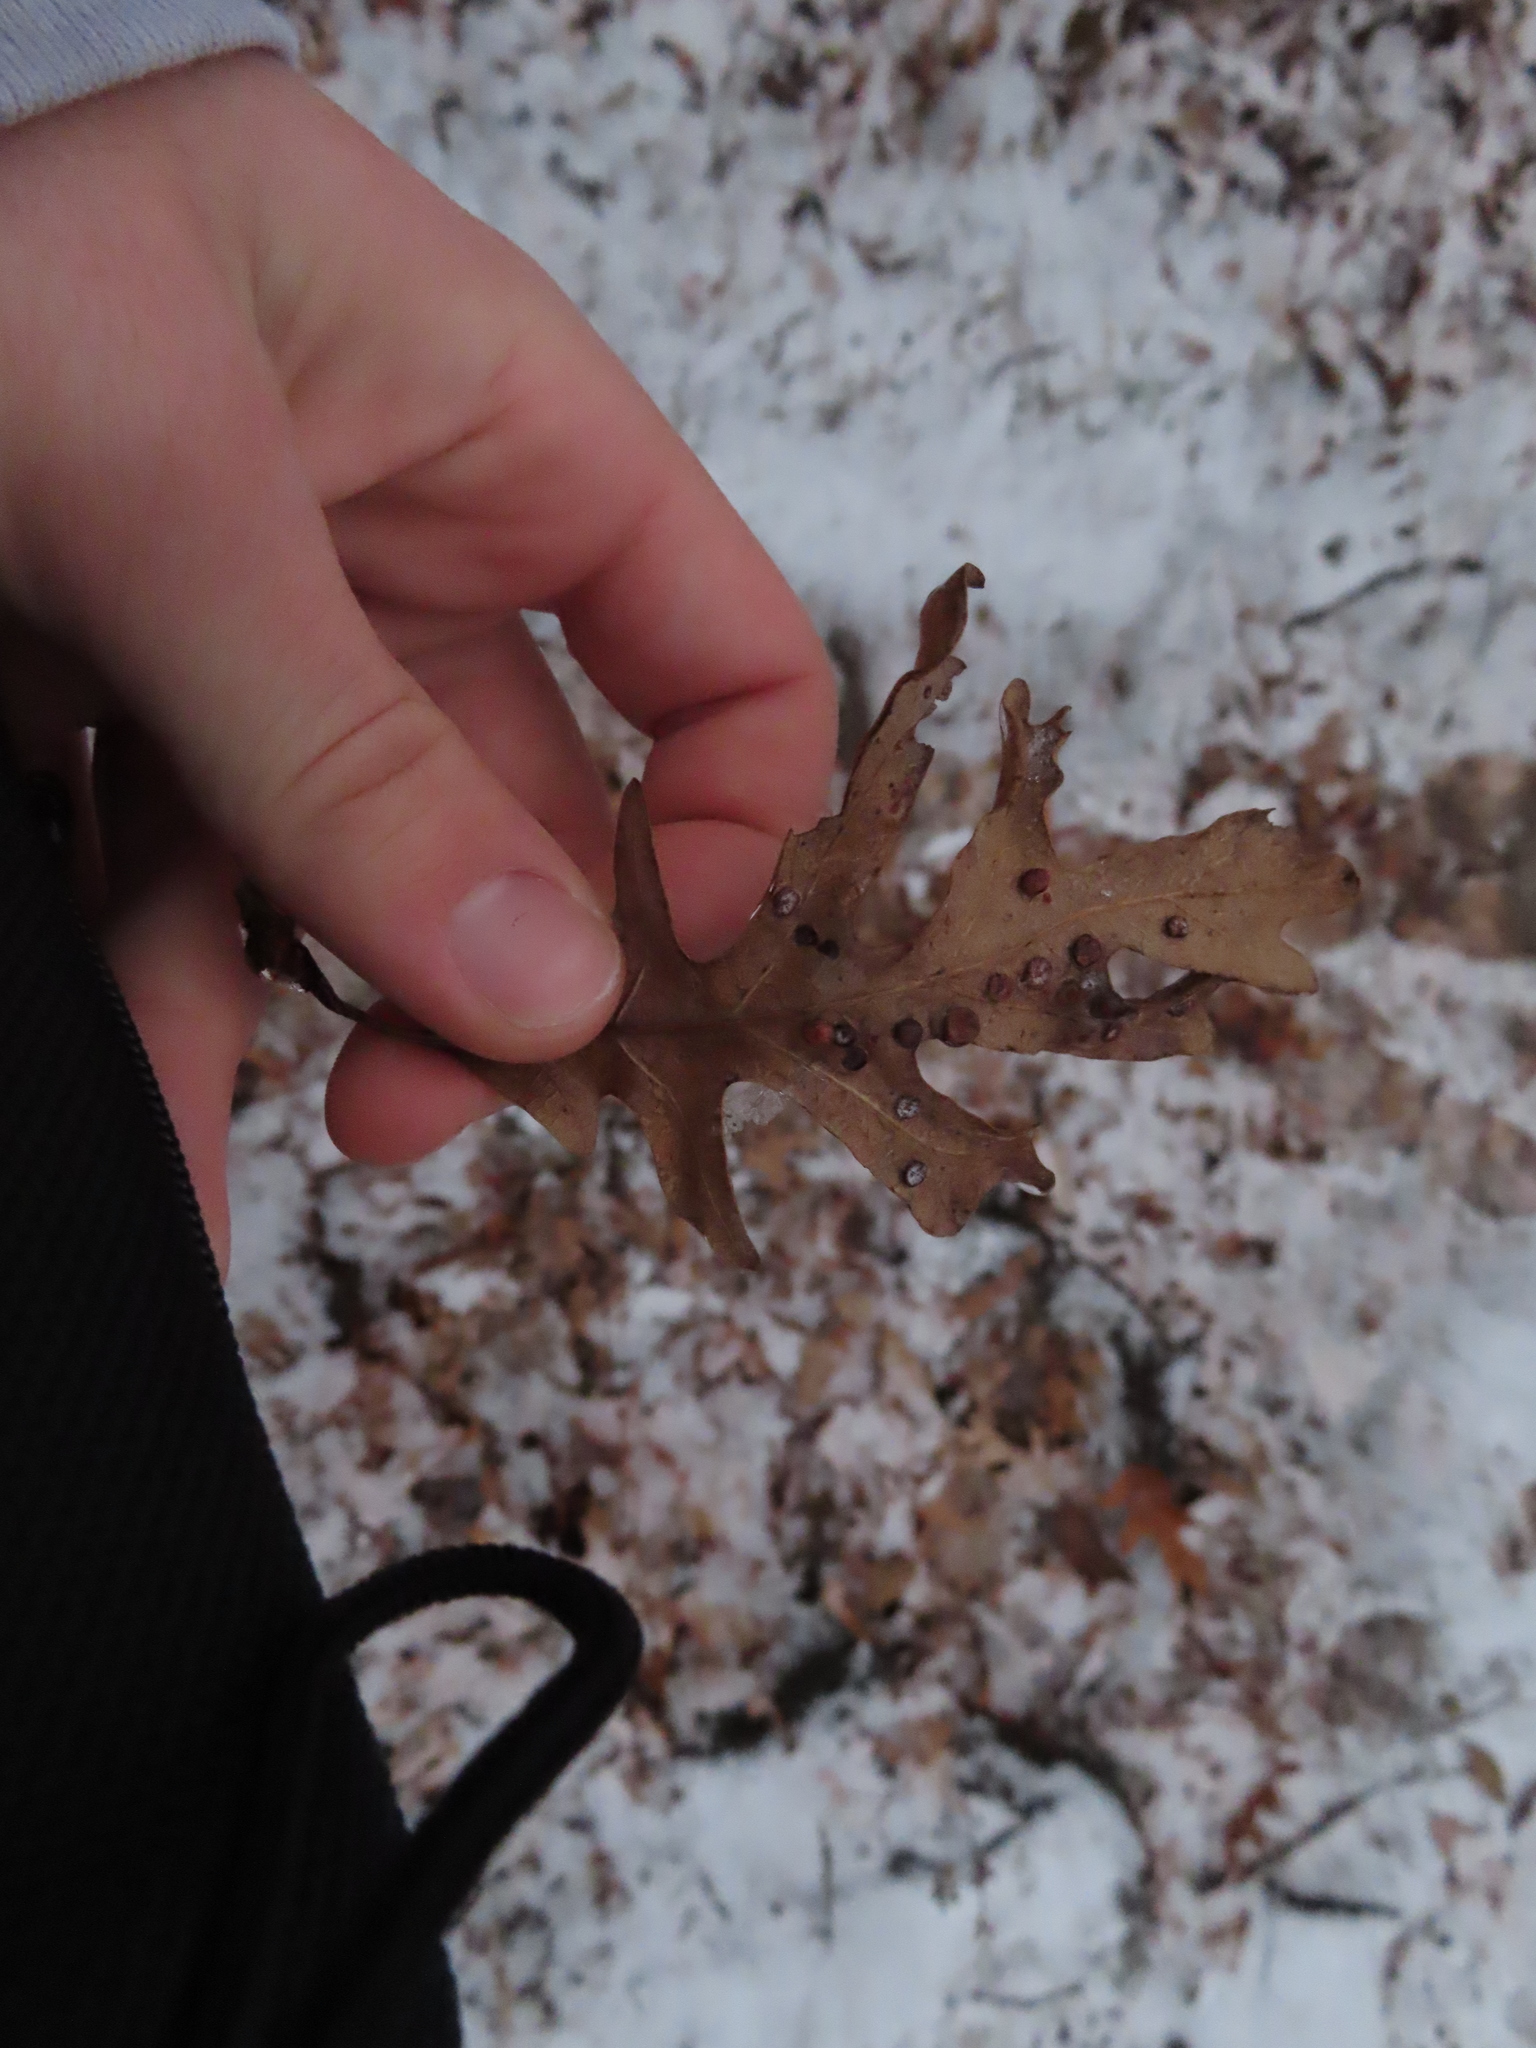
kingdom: Animalia
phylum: Arthropoda
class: Insecta
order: Hymenoptera
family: Cynipidae
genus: Phylloteras
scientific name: Phylloteras poculum
